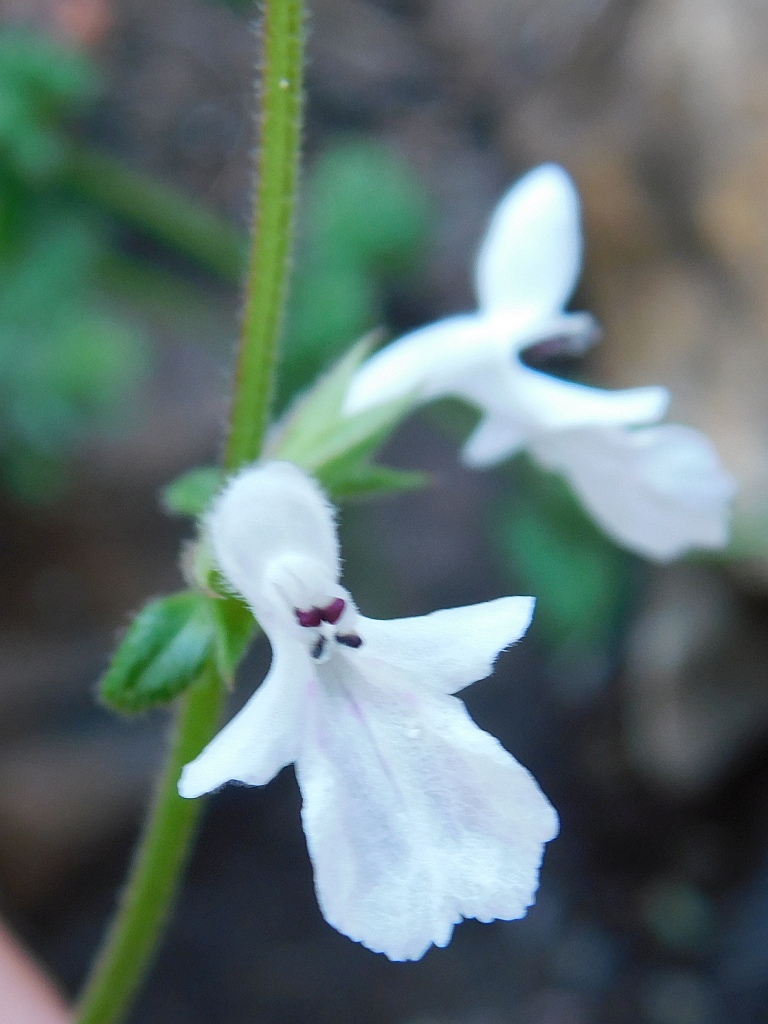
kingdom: Plantae
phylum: Tracheophyta
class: Magnoliopsida
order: Lamiales
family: Lamiaceae
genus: Stachys
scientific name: Stachys aethiopica
